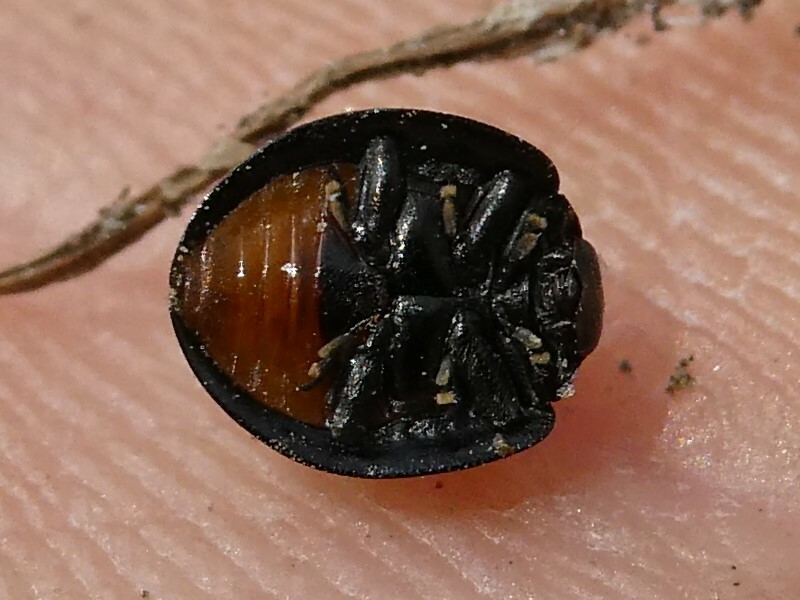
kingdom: Animalia
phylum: Arthropoda
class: Insecta
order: Coleoptera
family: Coccinellidae
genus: Chilocorus
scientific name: Chilocorus stigma
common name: Twicestabbed lady beetle
